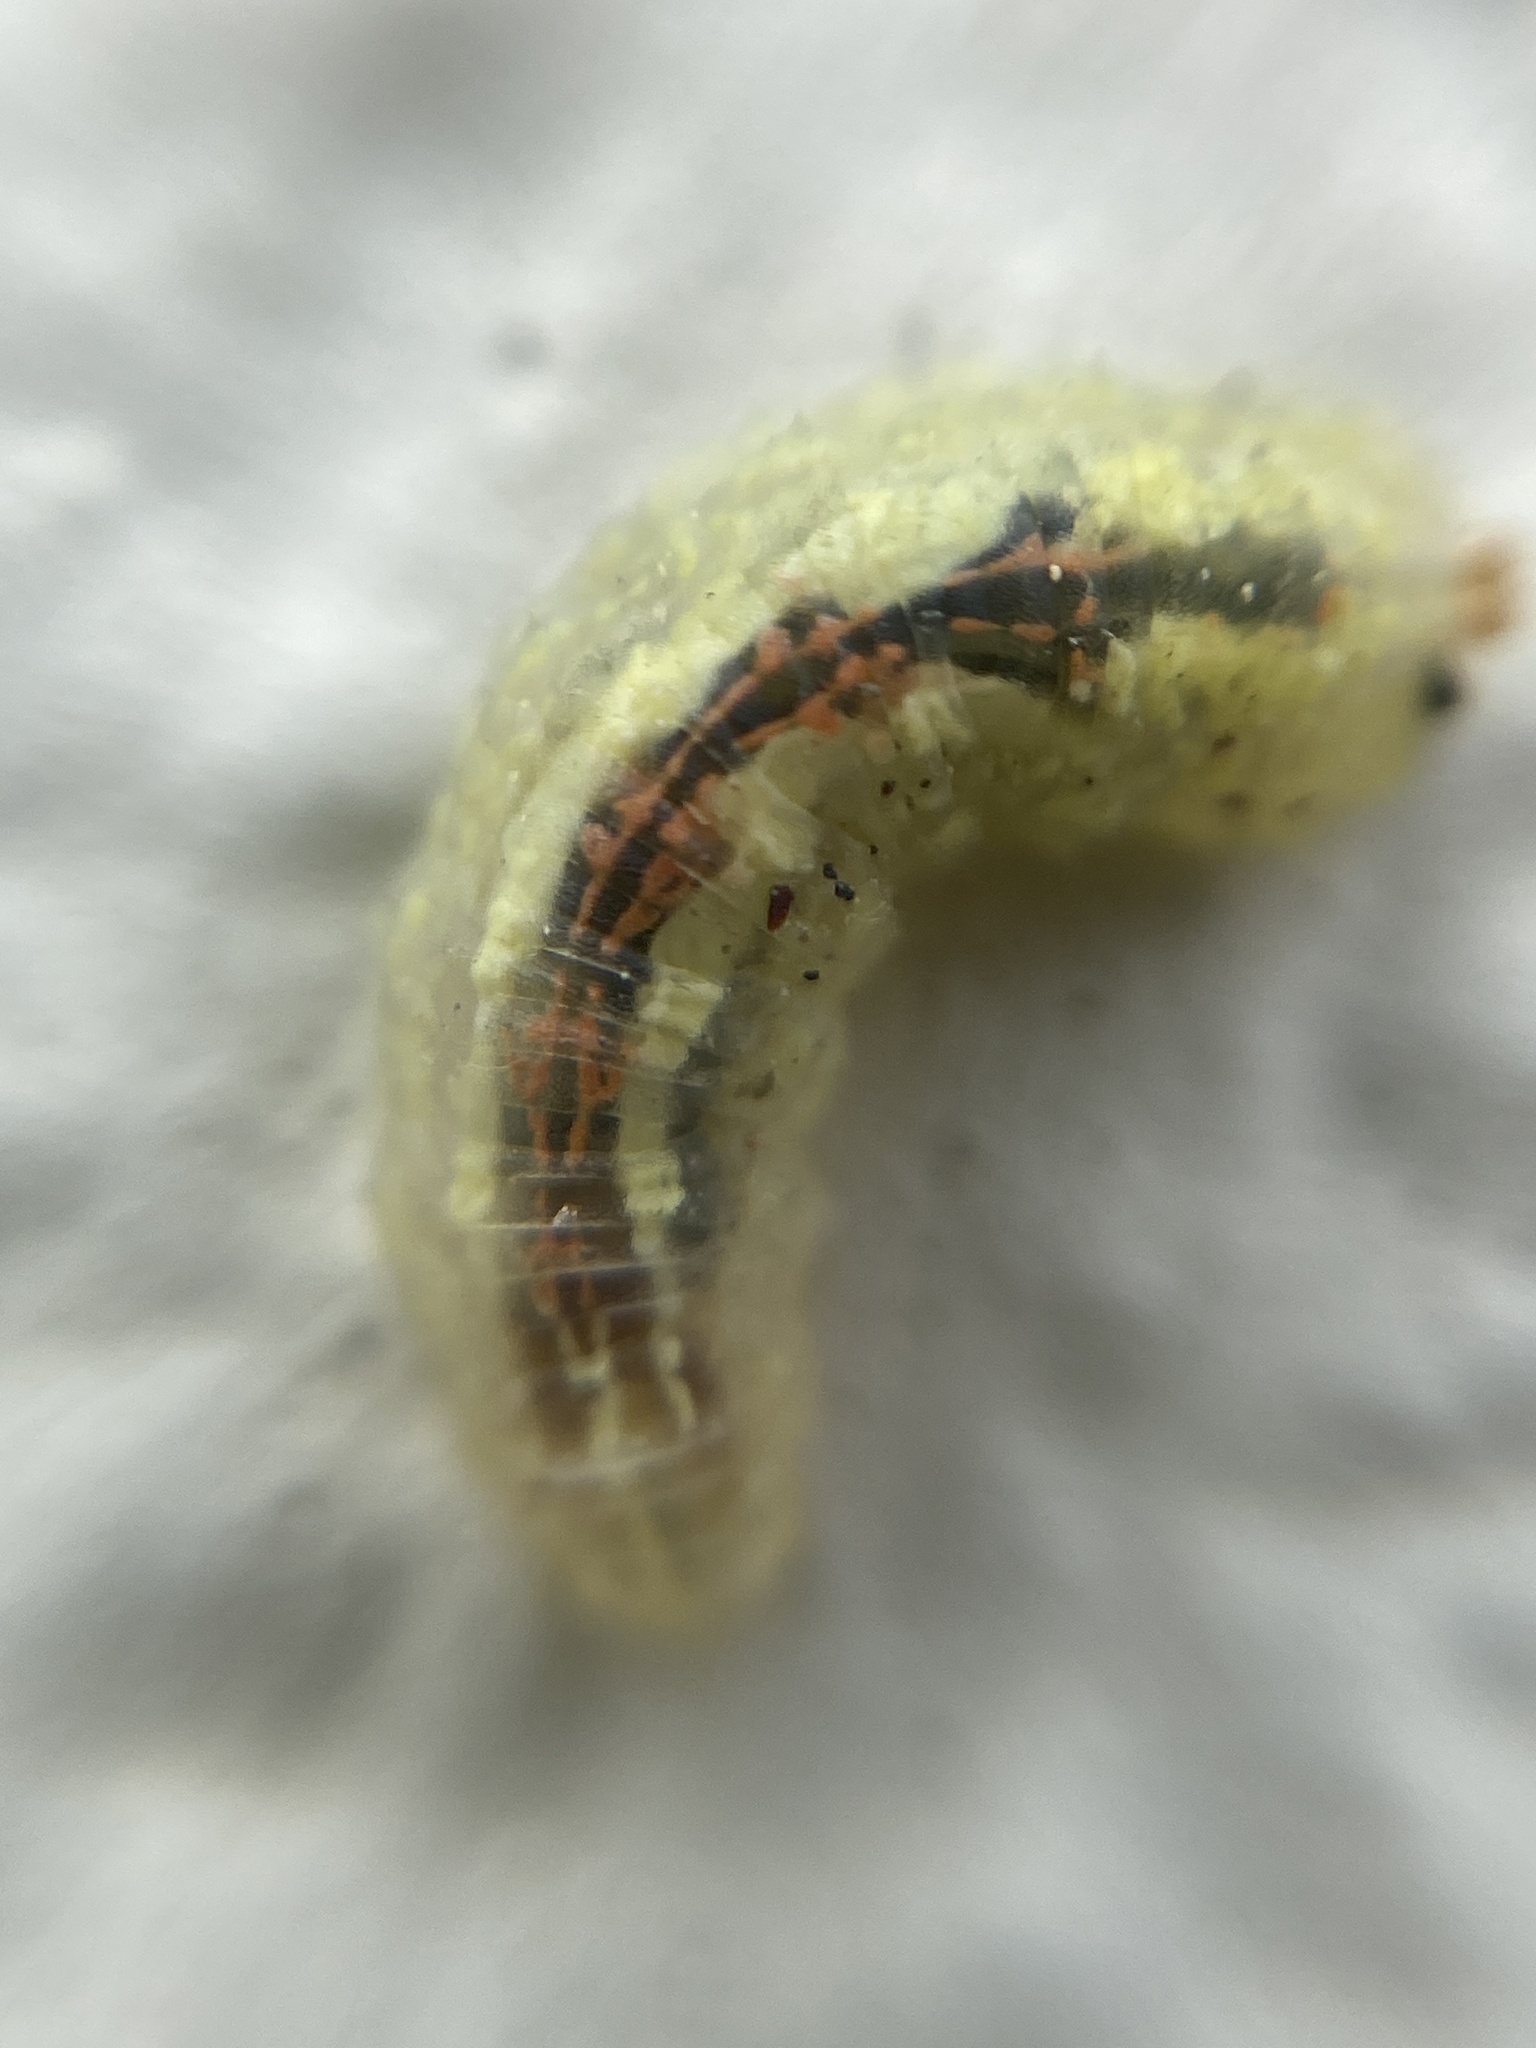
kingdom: Animalia
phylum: Arthropoda
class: Insecta
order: Diptera
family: Syrphidae
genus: Syrphus
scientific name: Syrphus
